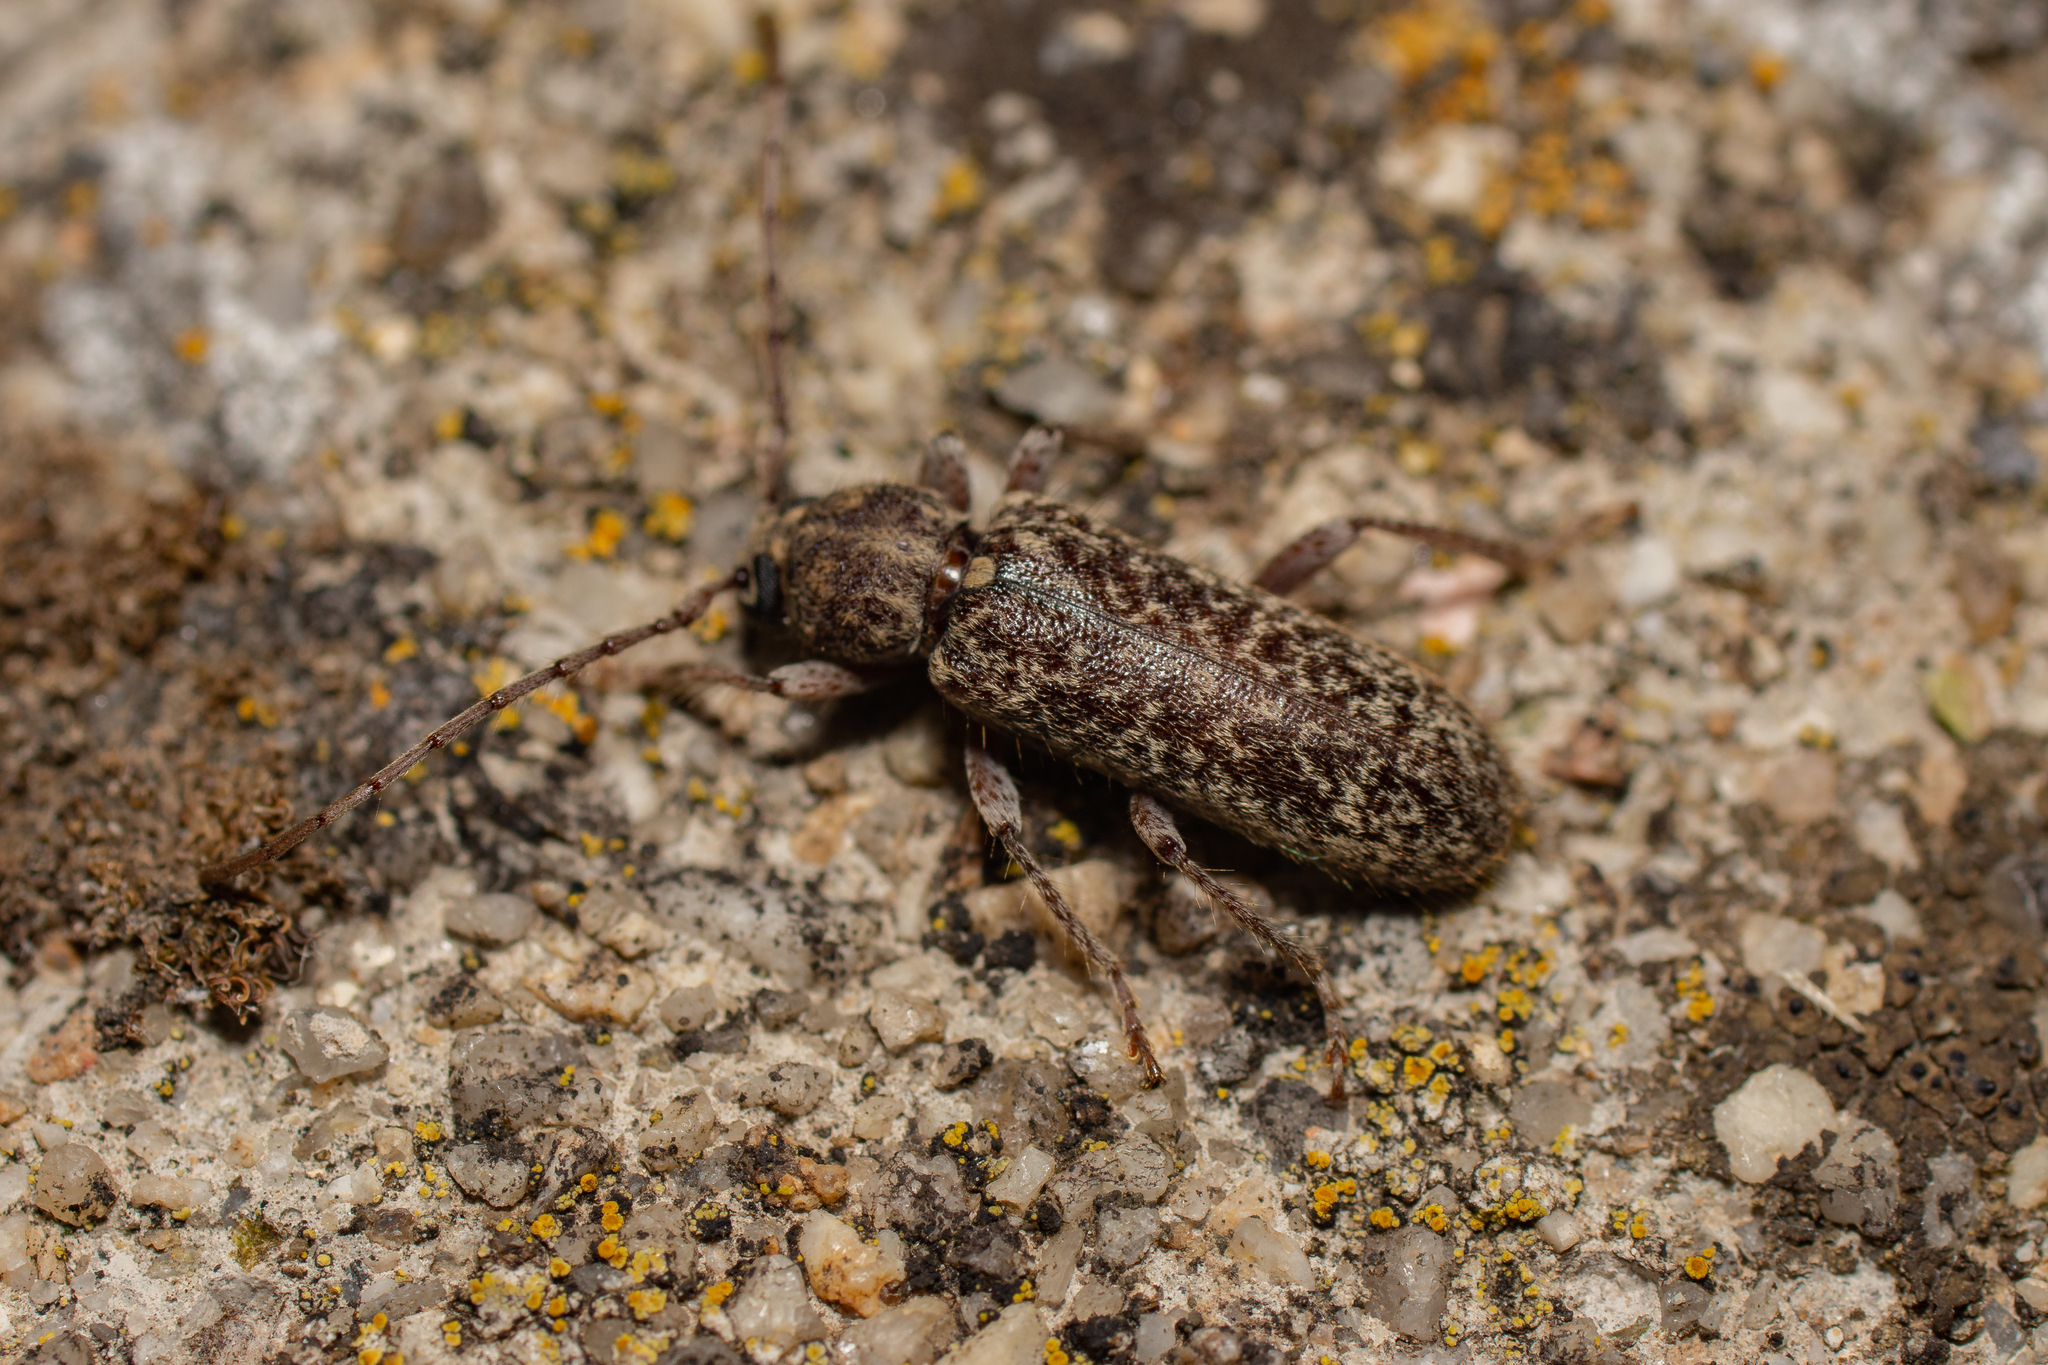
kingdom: Animalia
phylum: Arthropoda
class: Insecta
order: Coleoptera
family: Cerambycidae
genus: Trichoferus
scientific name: Trichoferus fasciculatus
